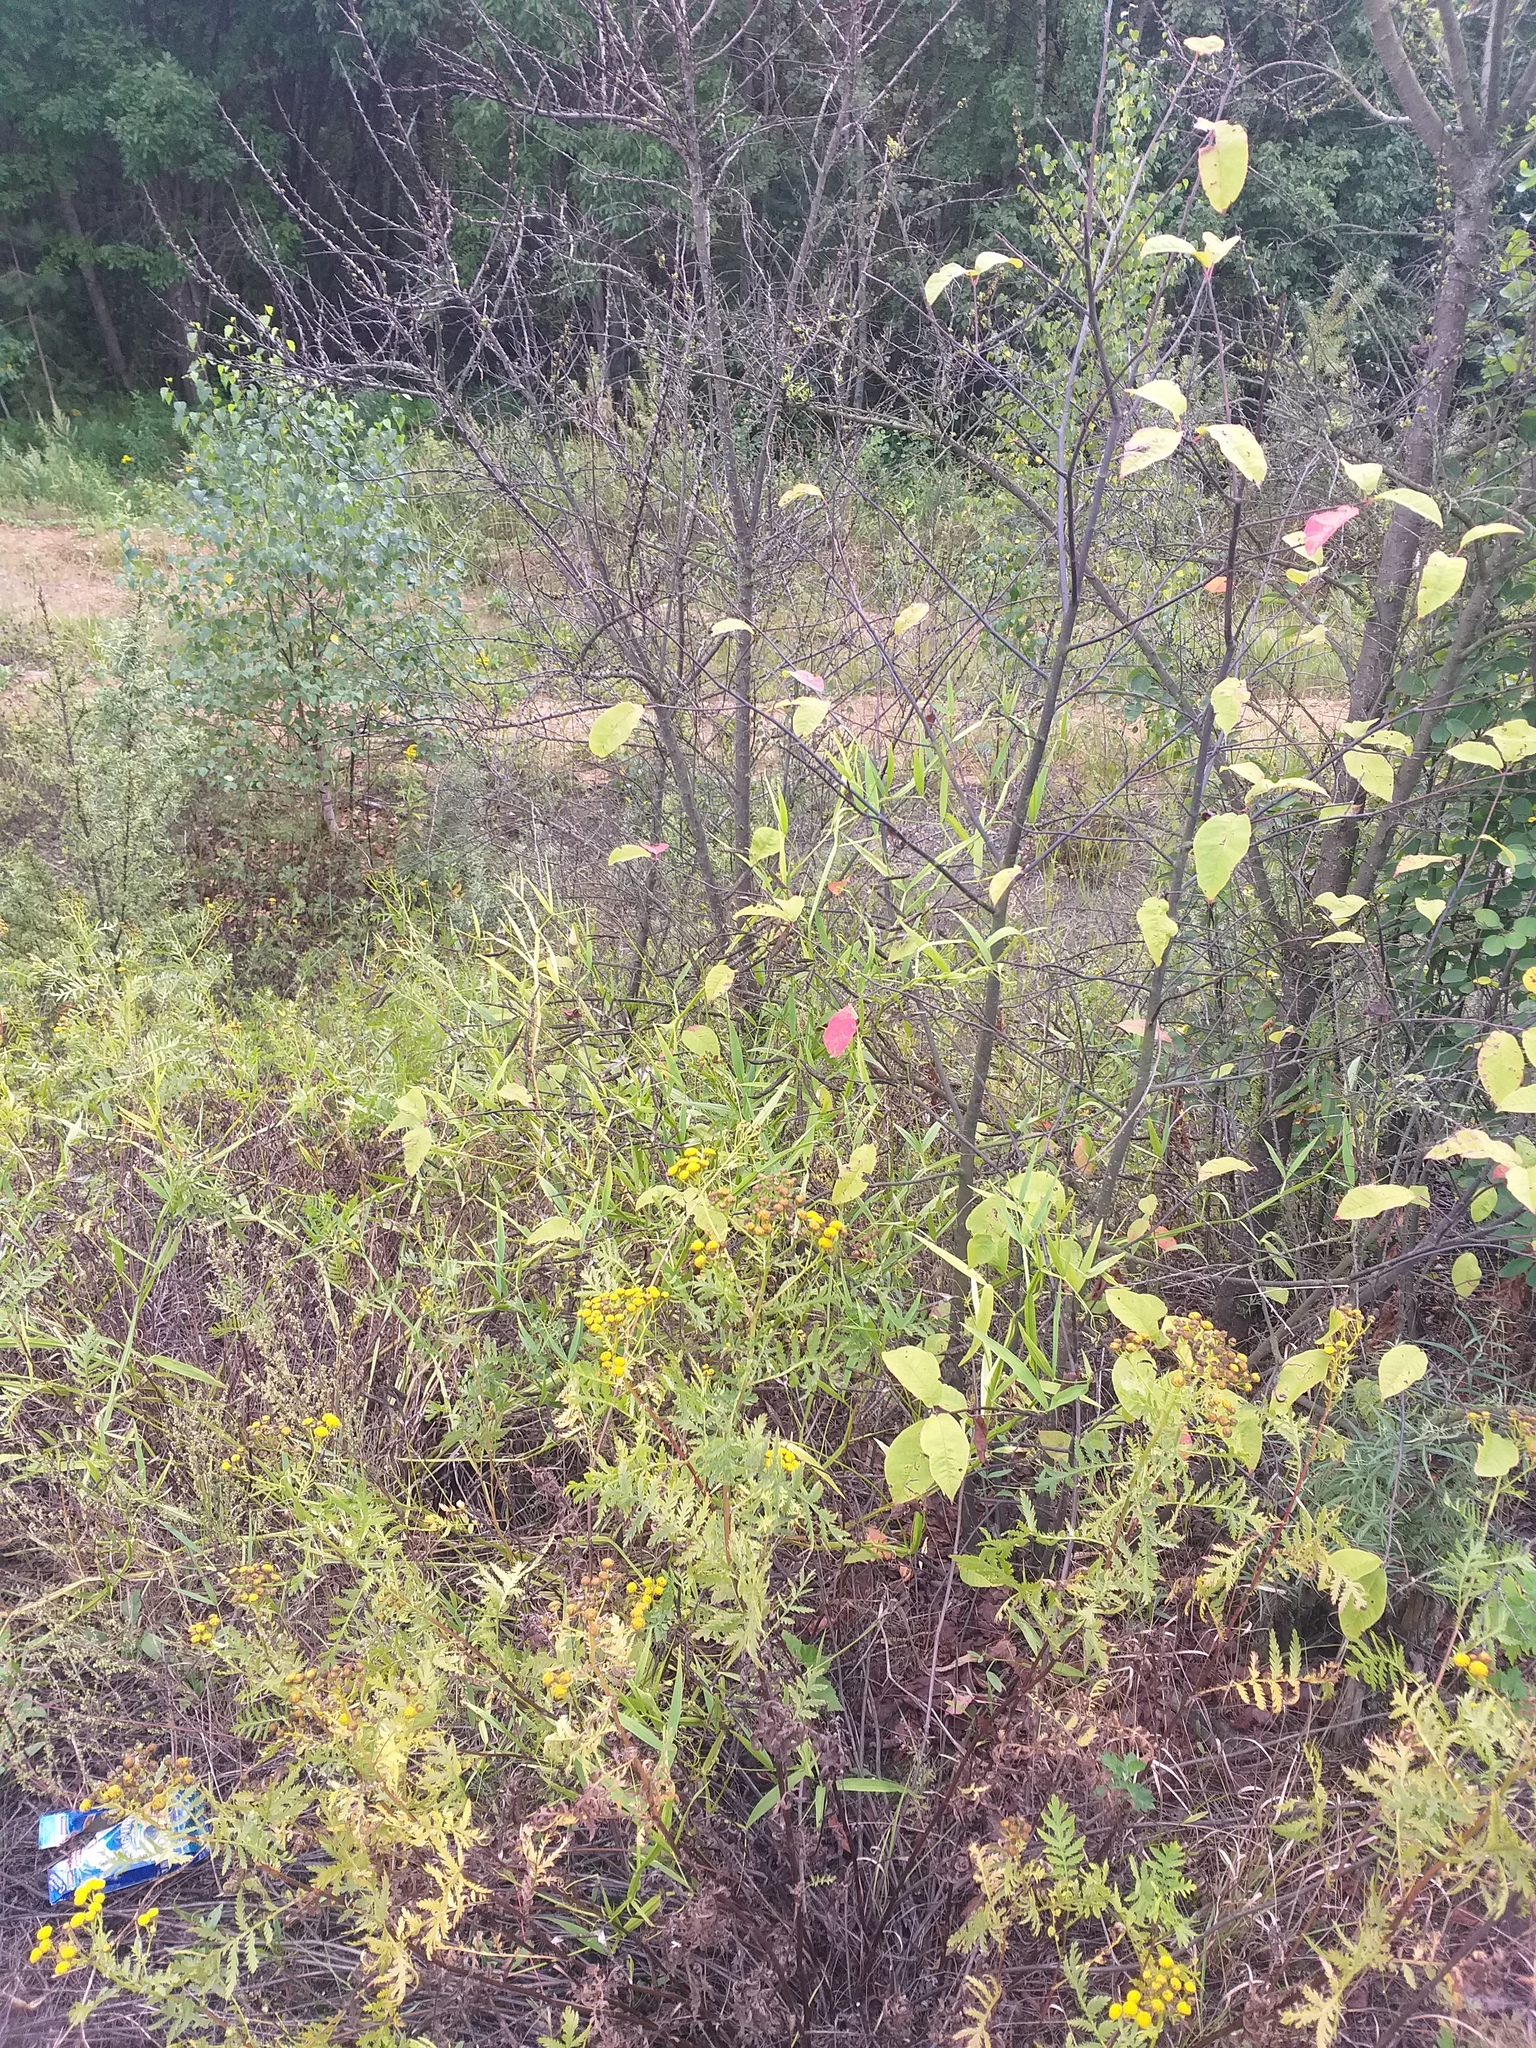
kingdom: Plantae
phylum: Tracheophyta
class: Magnoliopsida
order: Fabales
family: Fabaceae
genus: Lathyrus
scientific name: Lathyrus sylvestris
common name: Flat pea
